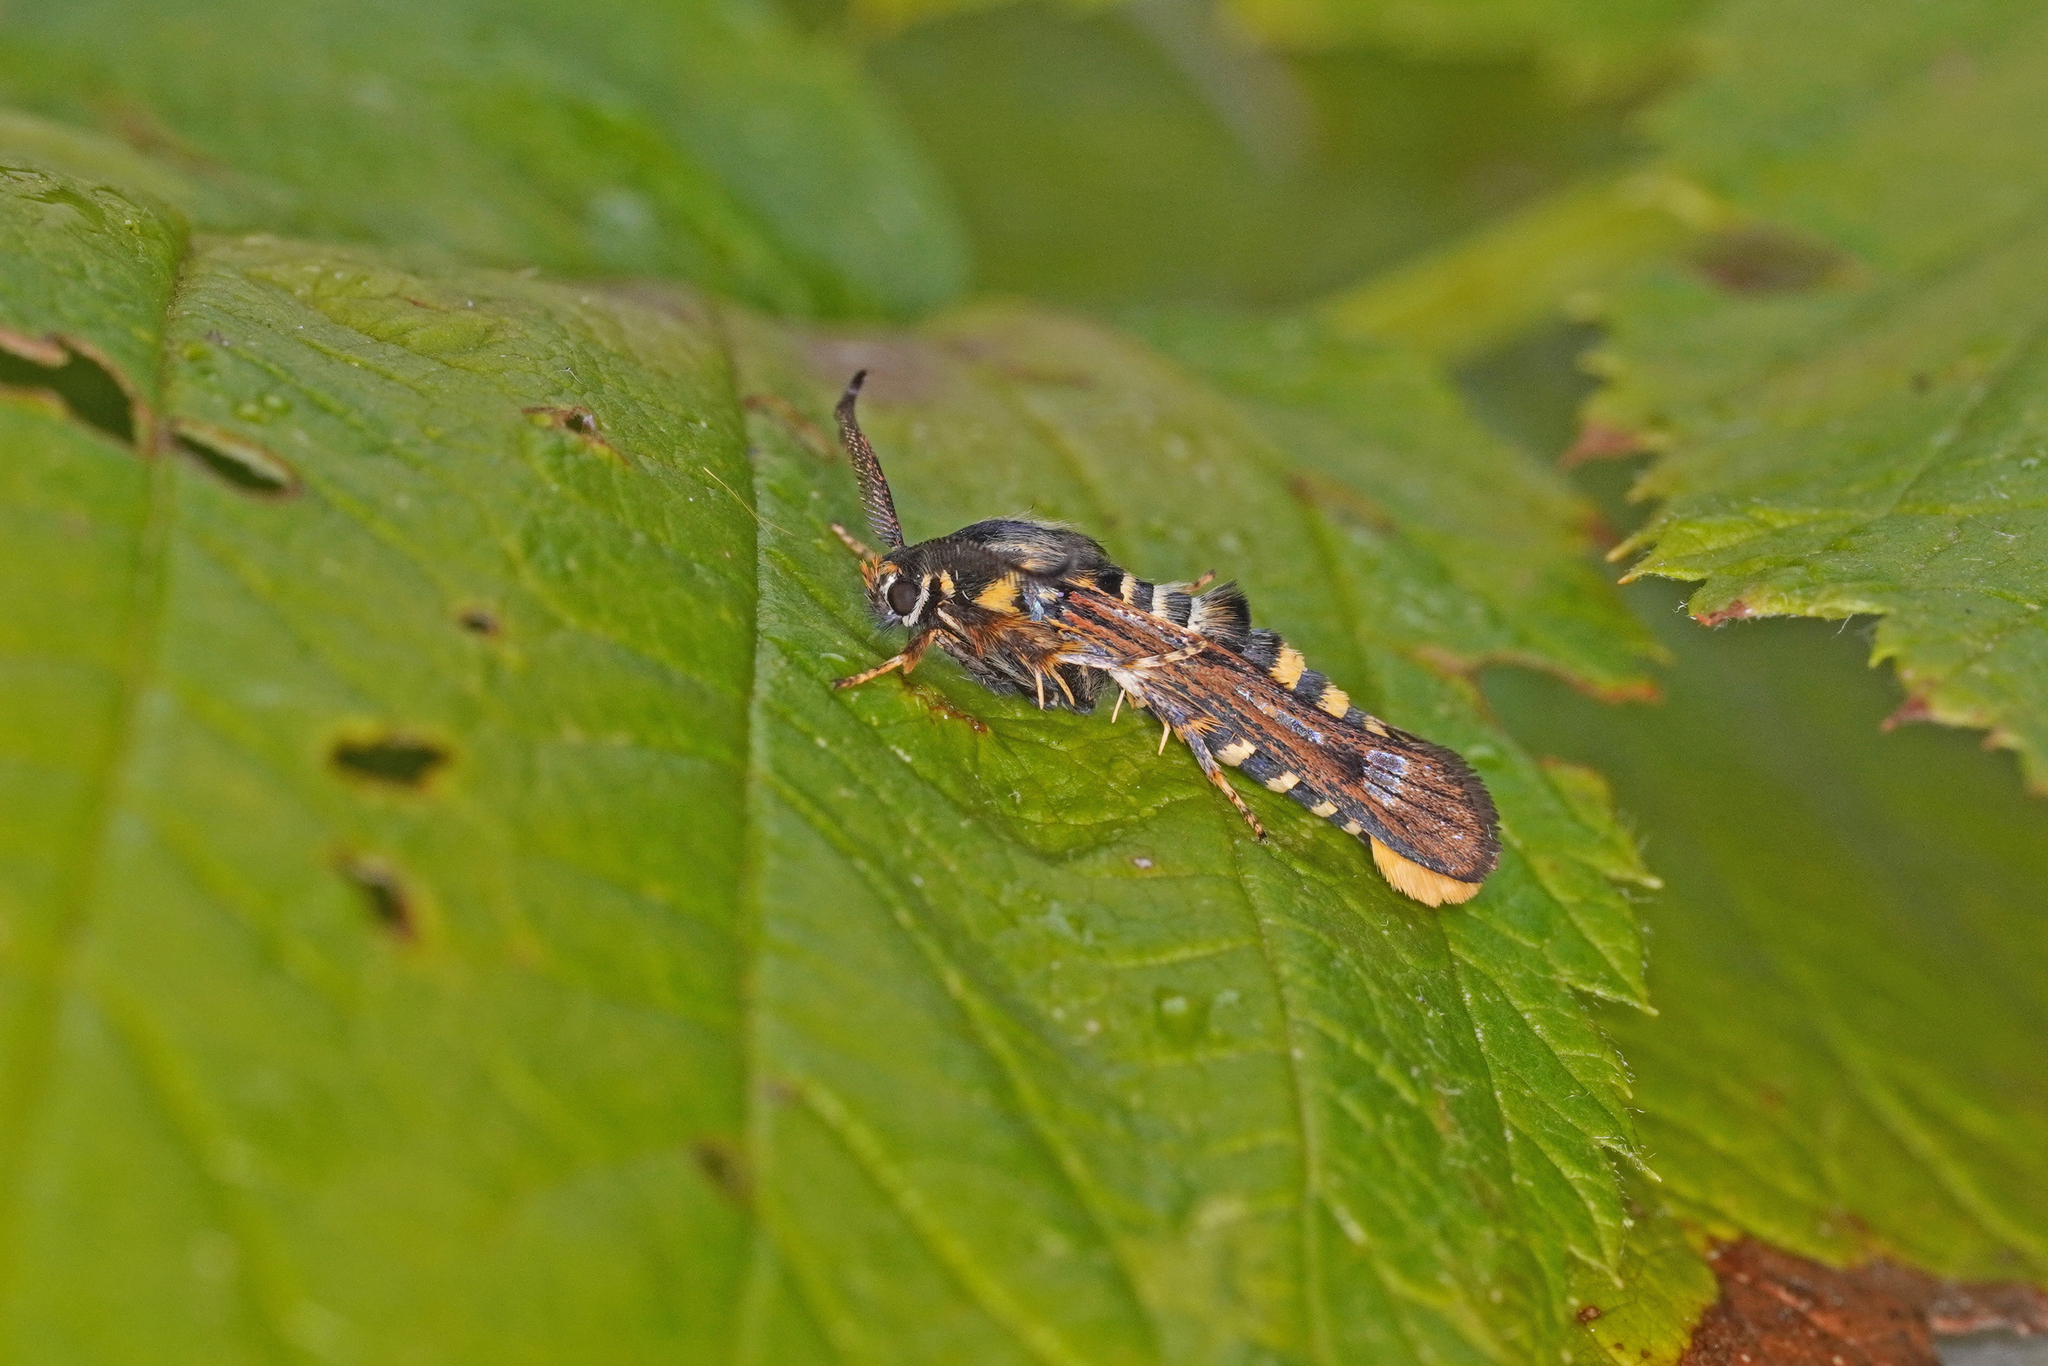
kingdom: Animalia
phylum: Arthropoda
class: Insecta
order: Lepidoptera
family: Sesiidae
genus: Pennisetia
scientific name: Pennisetia hylaeiformis
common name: Raspberry clearwing
